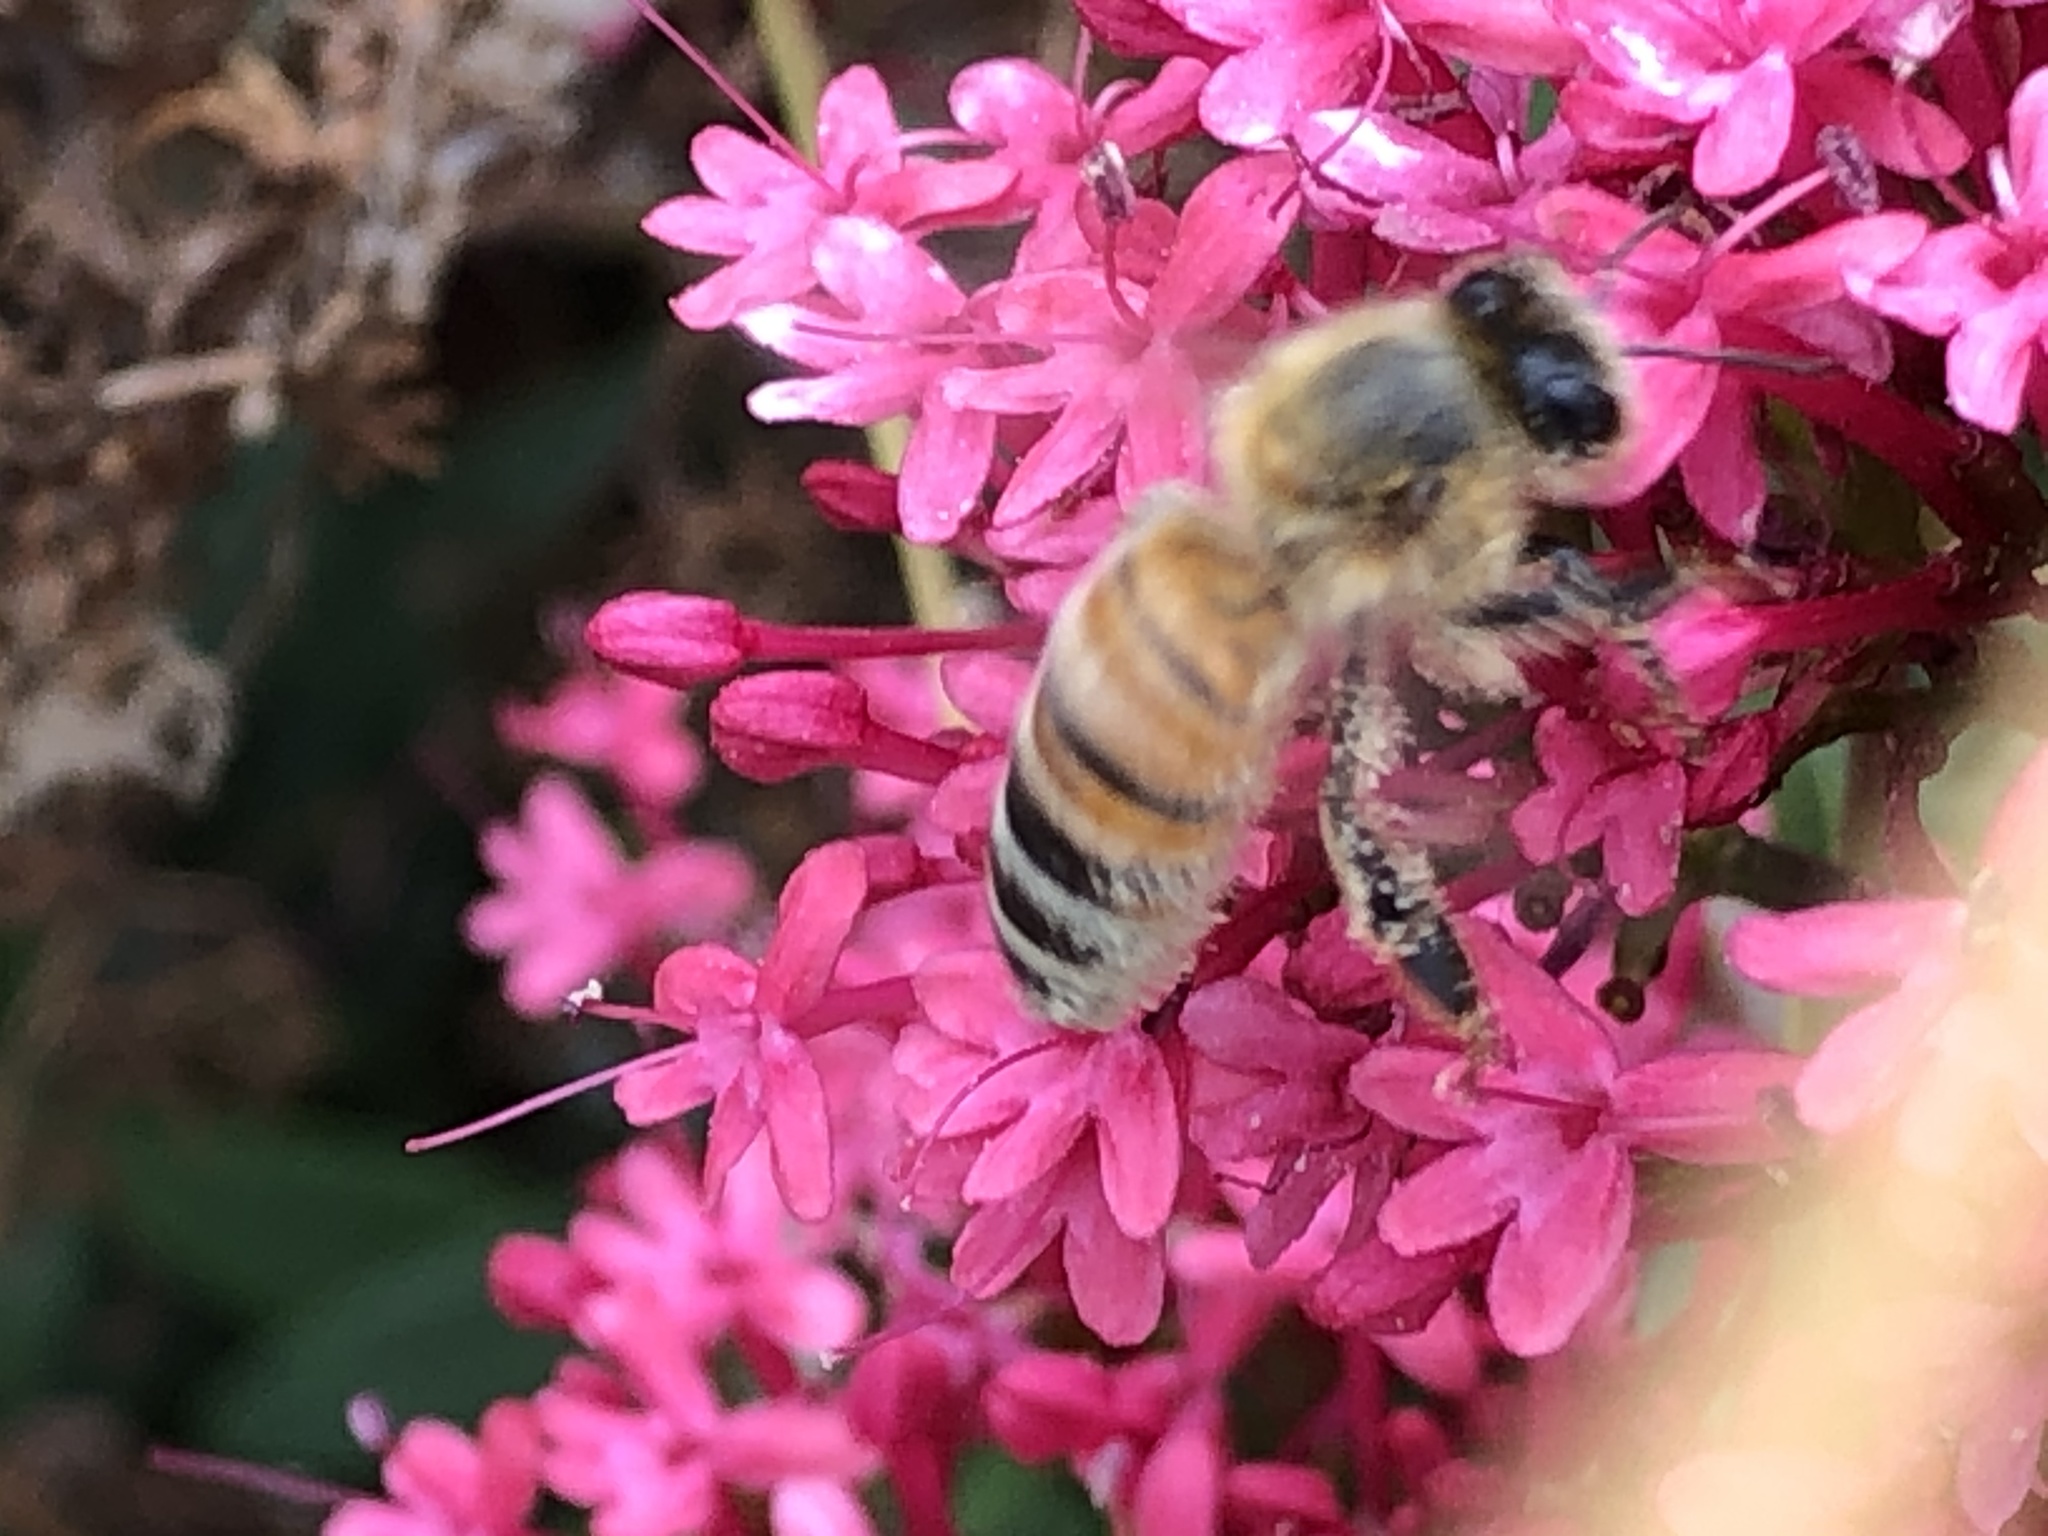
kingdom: Animalia
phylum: Arthropoda
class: Insecta
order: Hymenoptera
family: Apidae
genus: Apis
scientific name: Apis mellifera
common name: Honey bee
